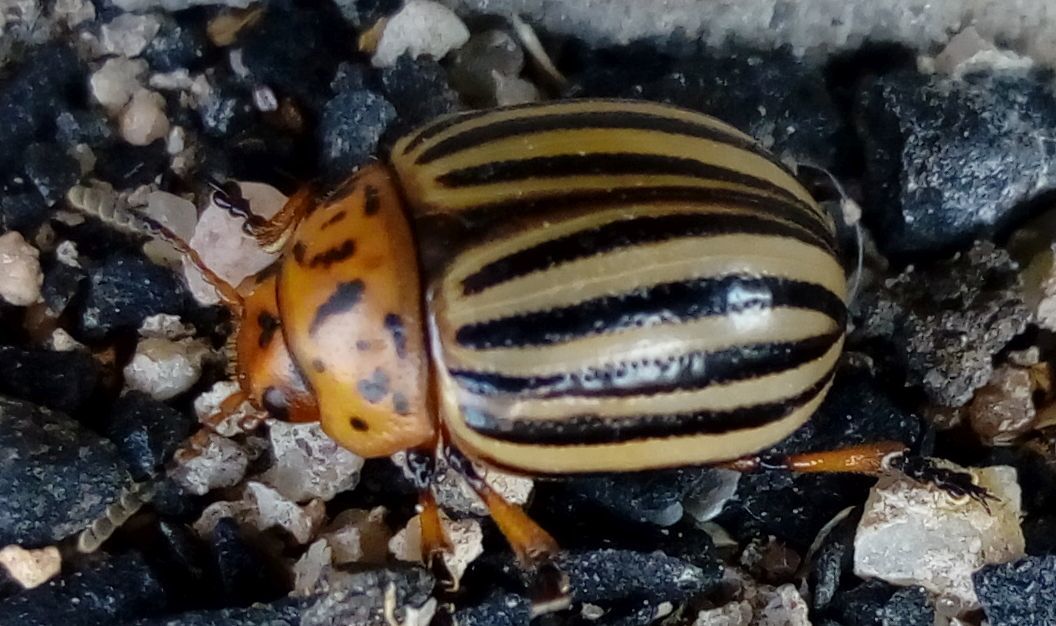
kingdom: Animalia
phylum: Arthropoda
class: Insecta
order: Coleoptera
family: Chrysomelidae
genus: Leptinotarsa
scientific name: Leptinotarsa decemlineata
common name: Colorado potato beetle
